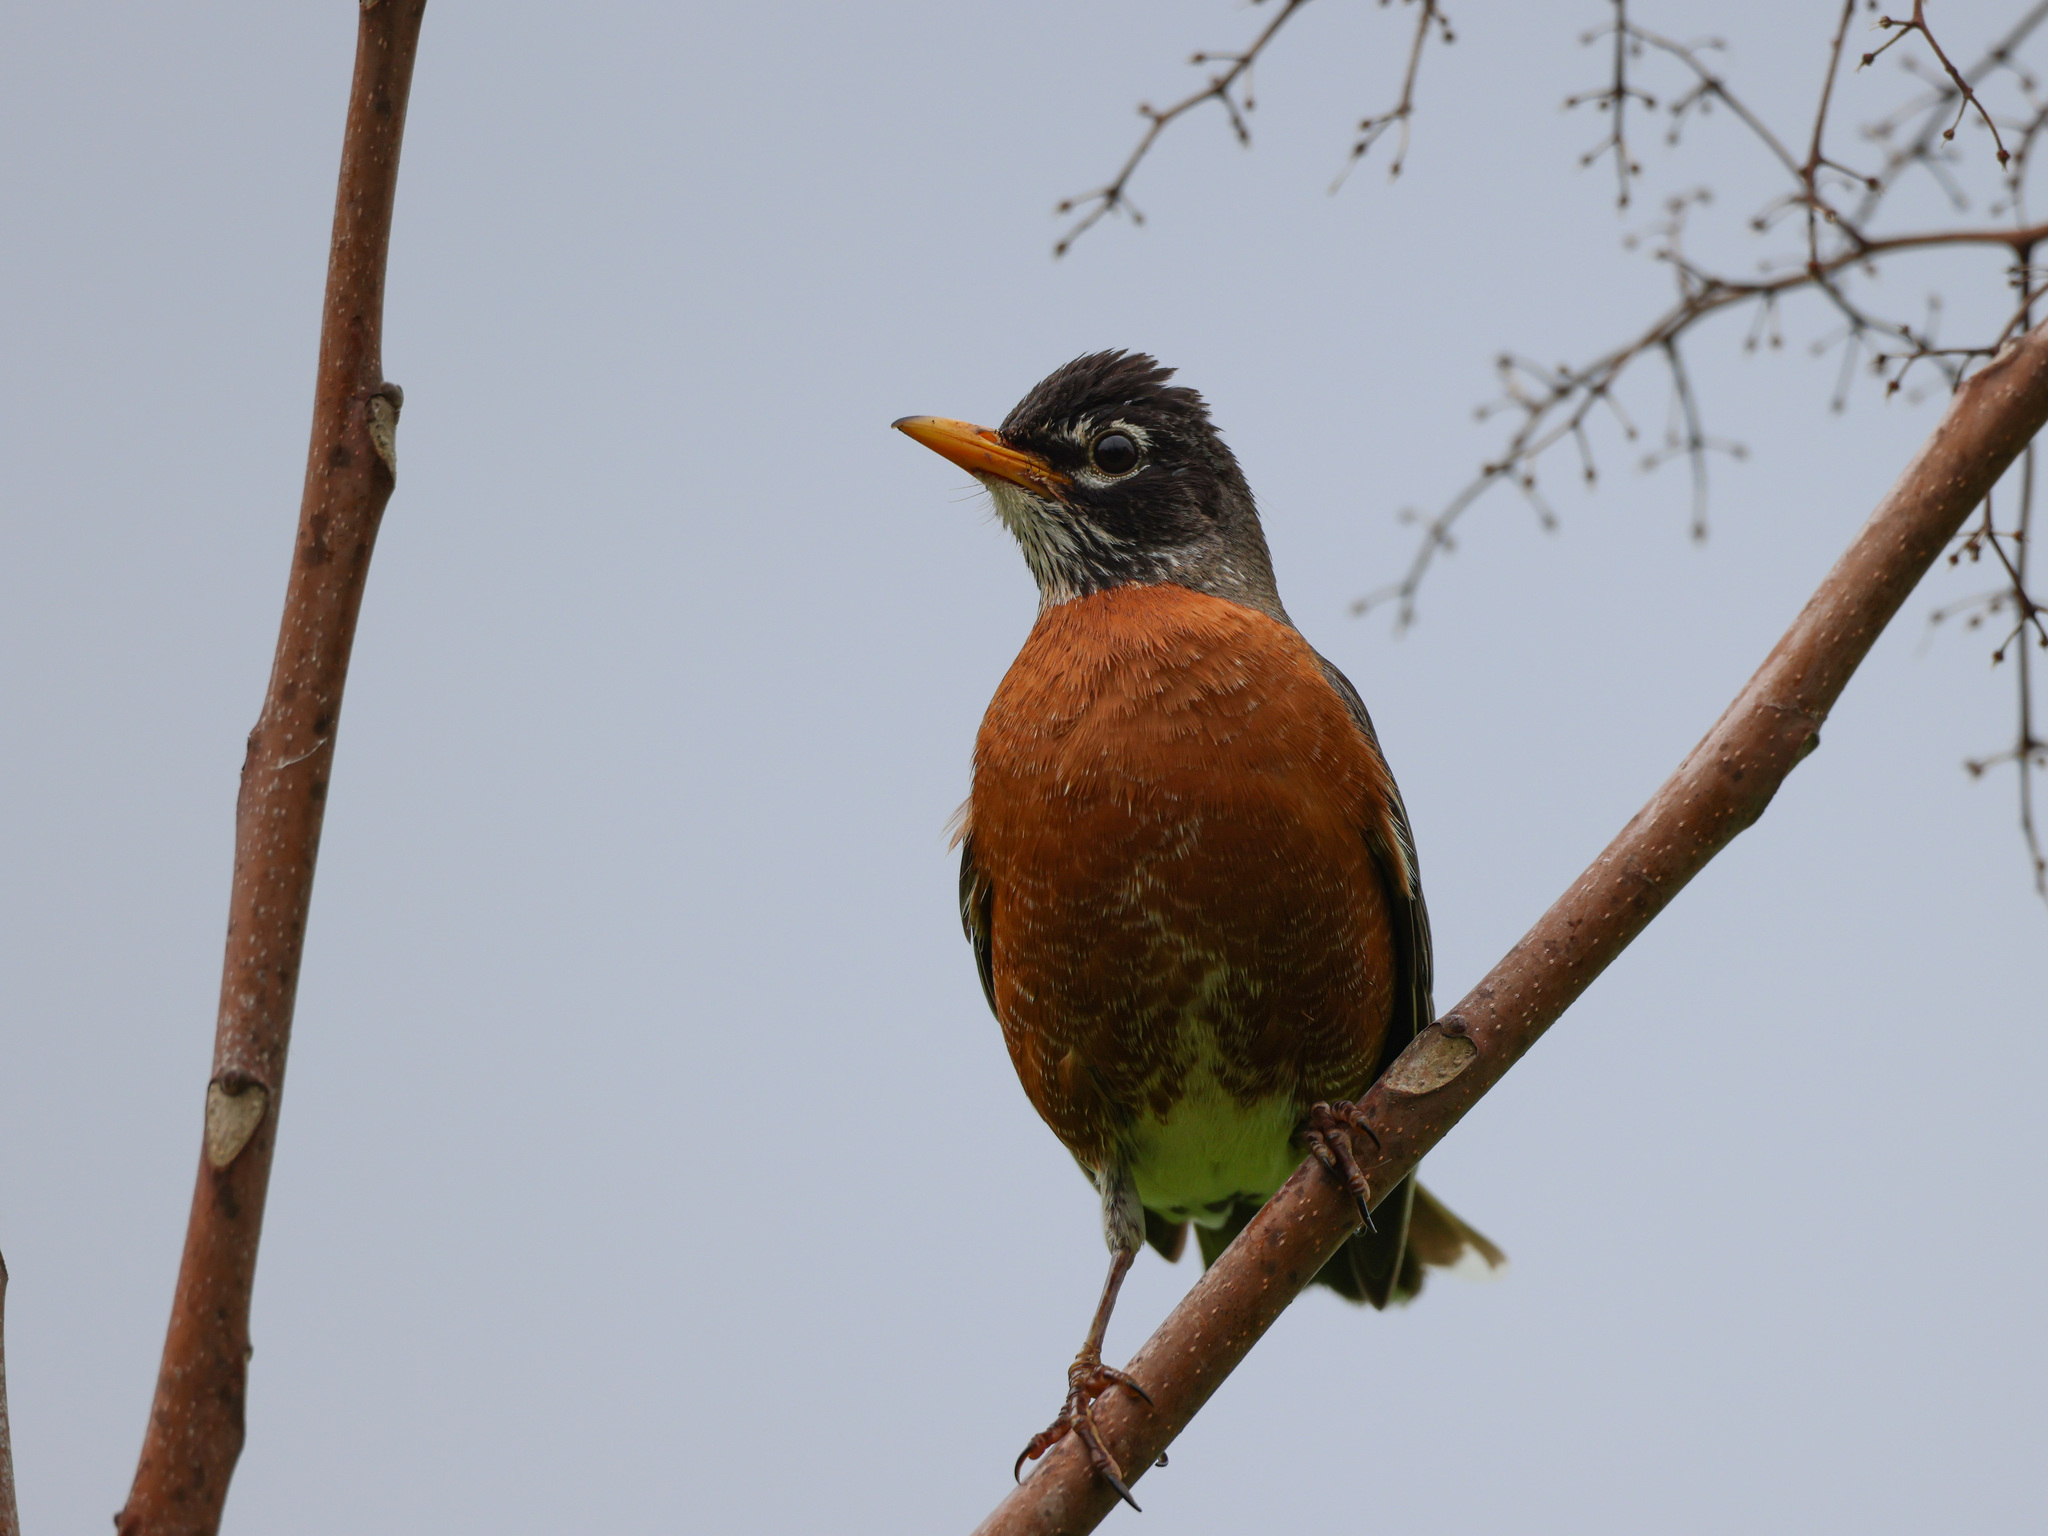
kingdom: Animalia
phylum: Chordata
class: Aves
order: Passeriformes
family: Turdidae
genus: Turdus
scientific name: Turdus migratorius
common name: American robin
